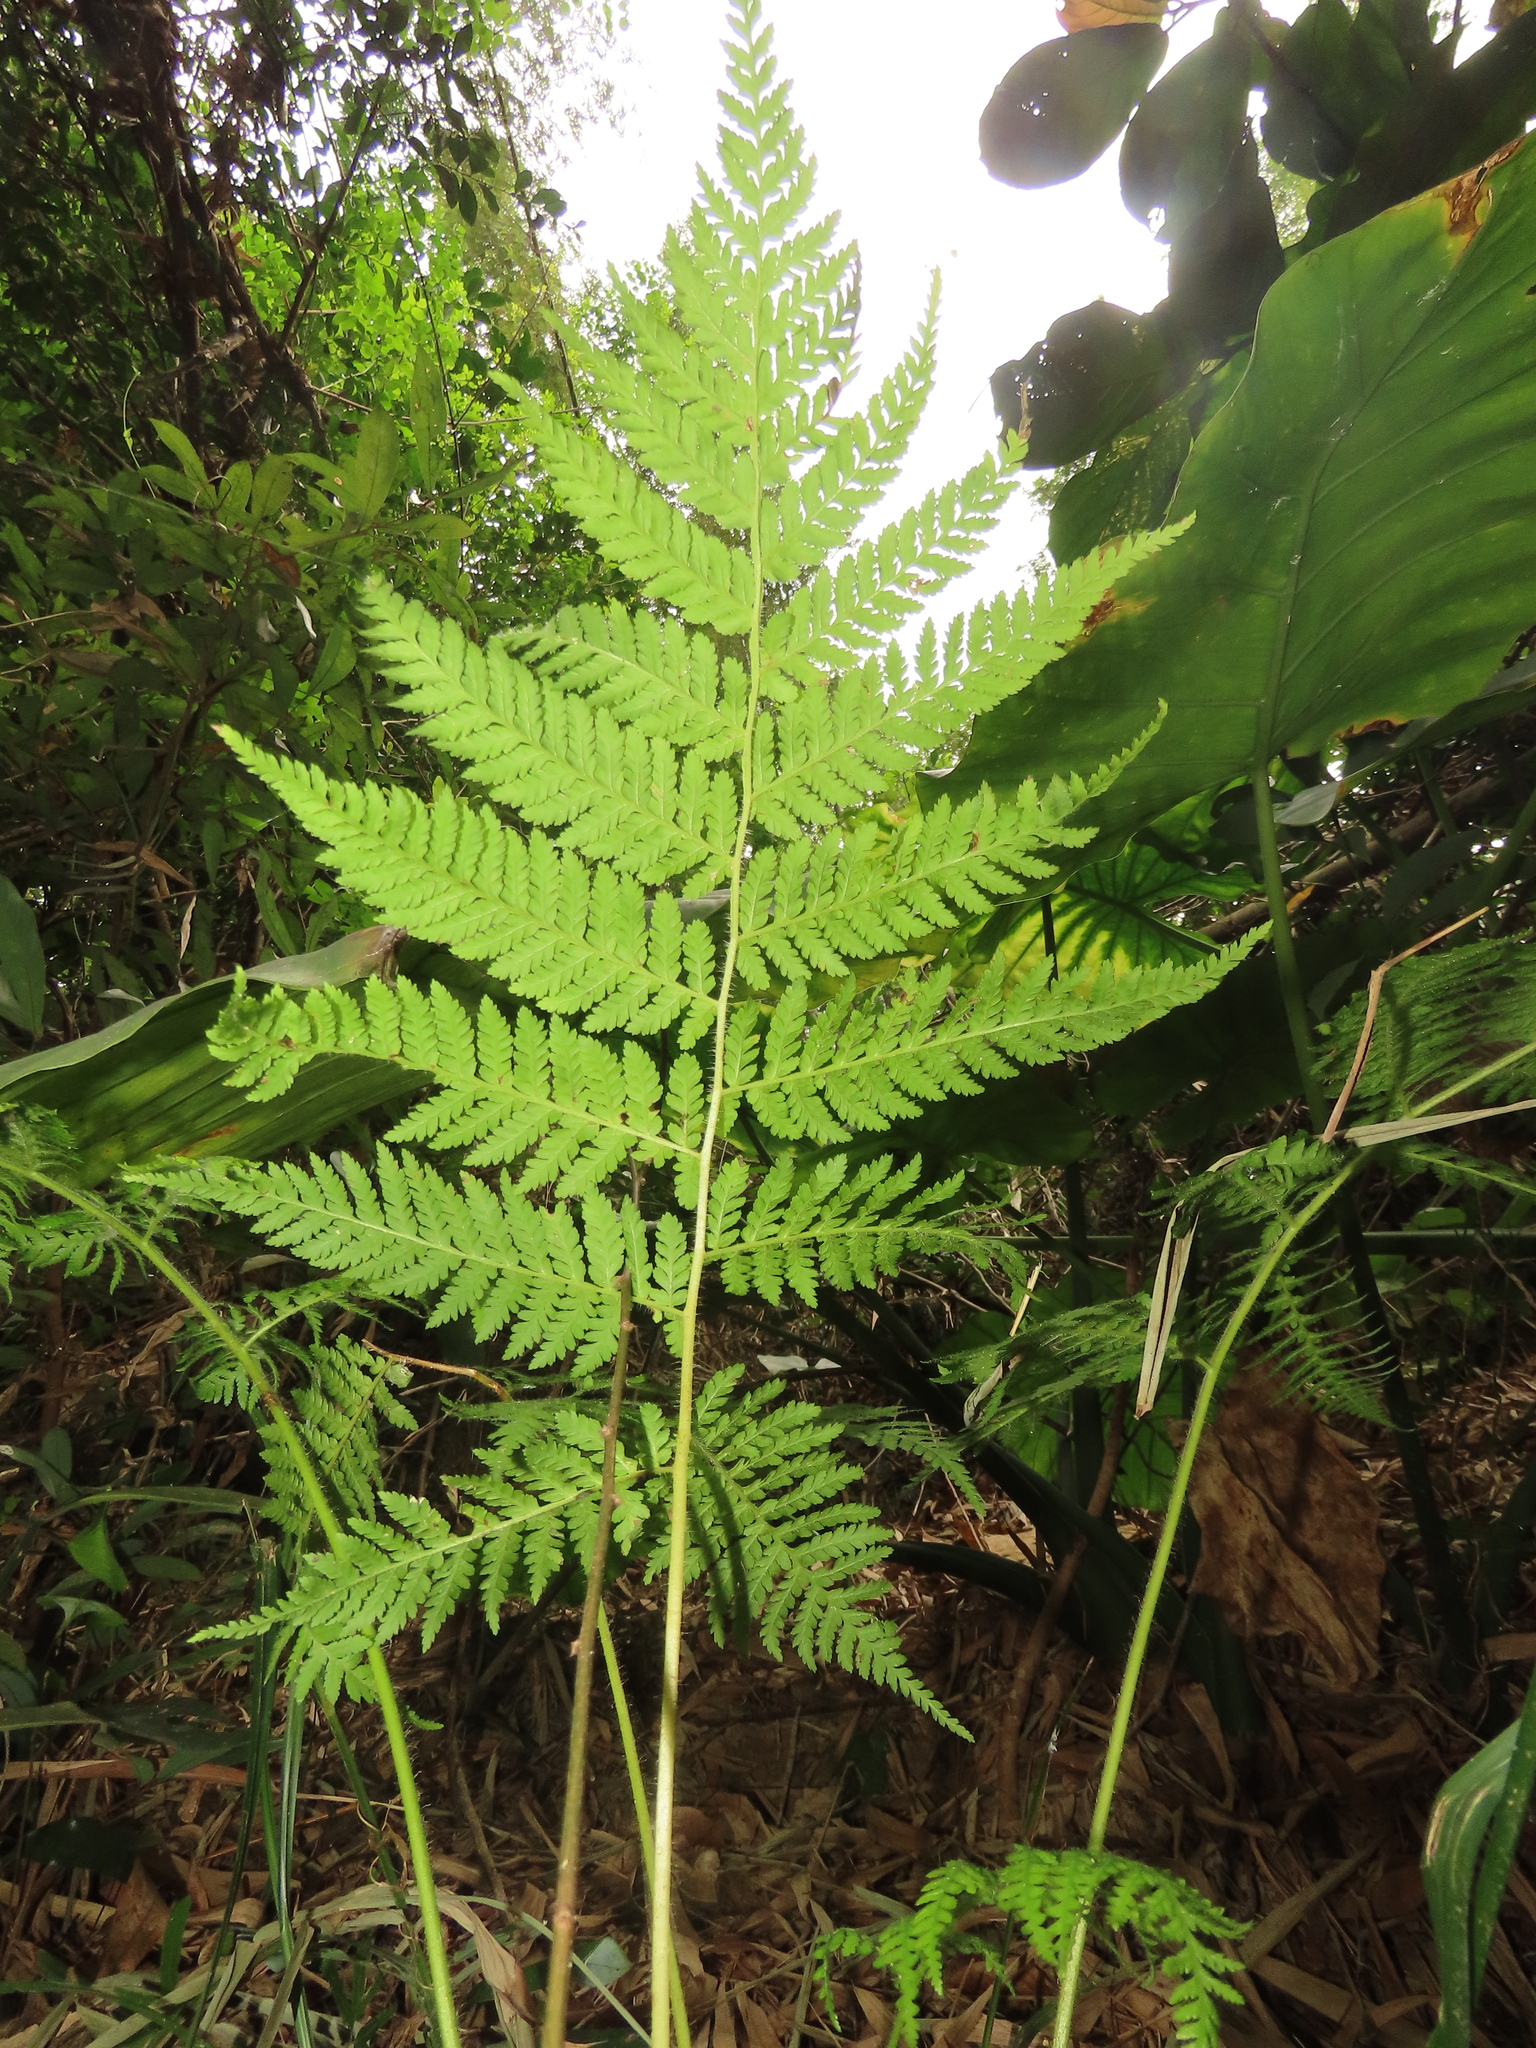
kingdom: Plantae
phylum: Tracheophyta
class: Polypodiopsida
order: Cyatheales
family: Cyatheaceae
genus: Alsophila
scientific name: Alsophila lepifera
